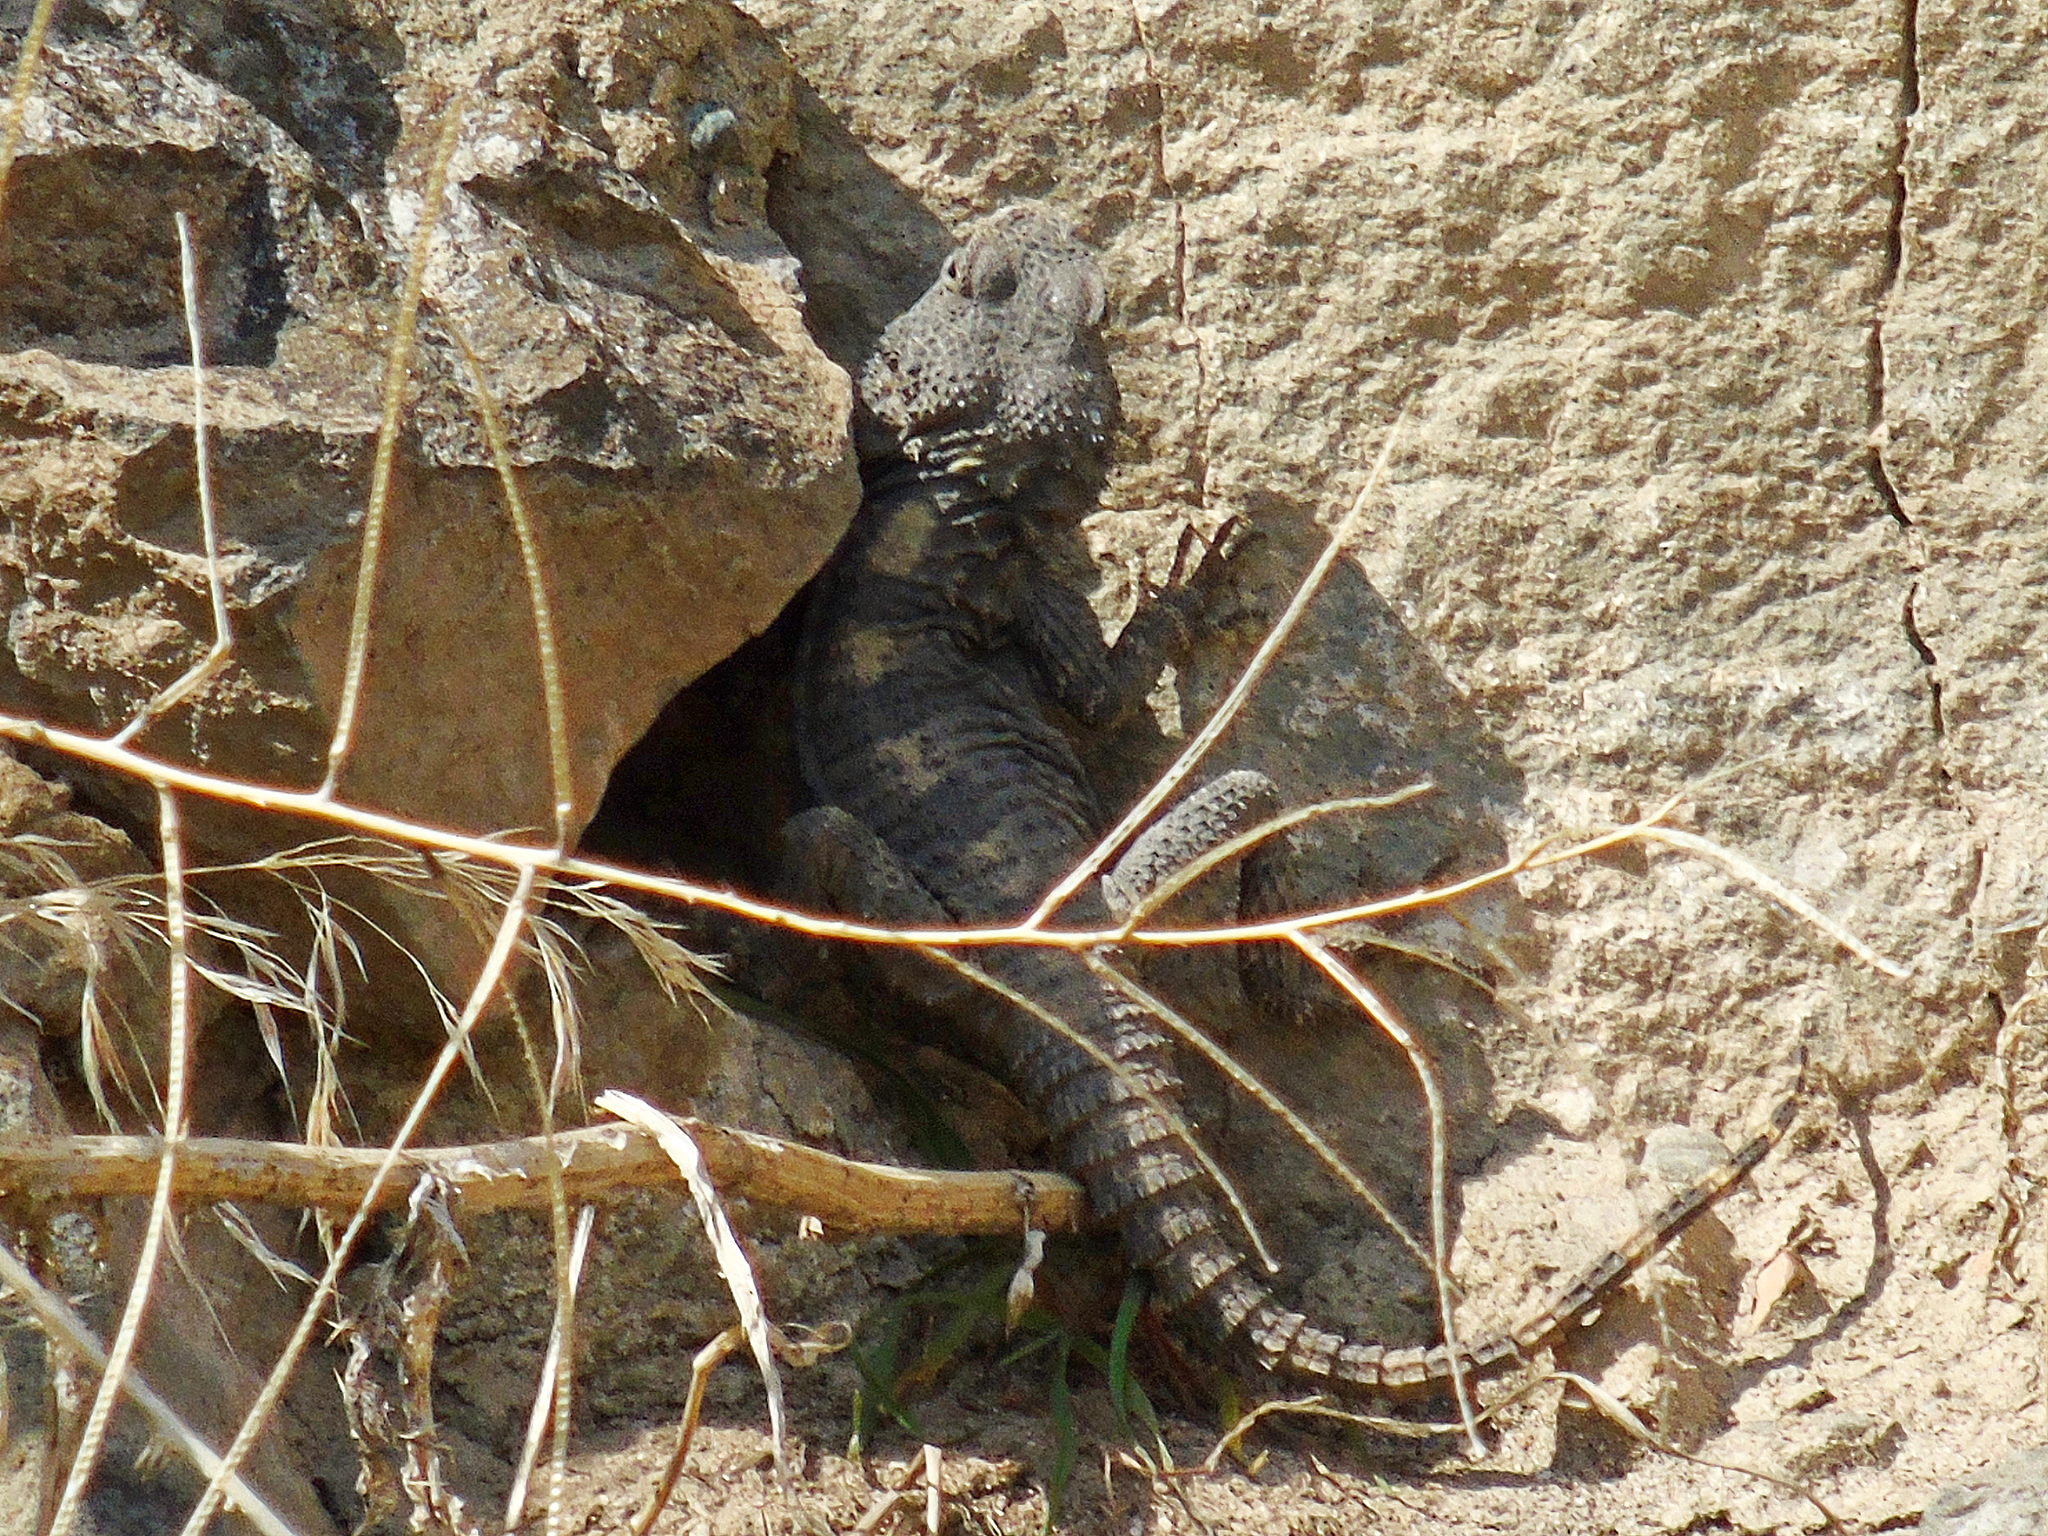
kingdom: Animalia
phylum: Chordata
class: Squamata
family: Agamidae
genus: Stellagama
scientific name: Stellagama stellio
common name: Starred agama
